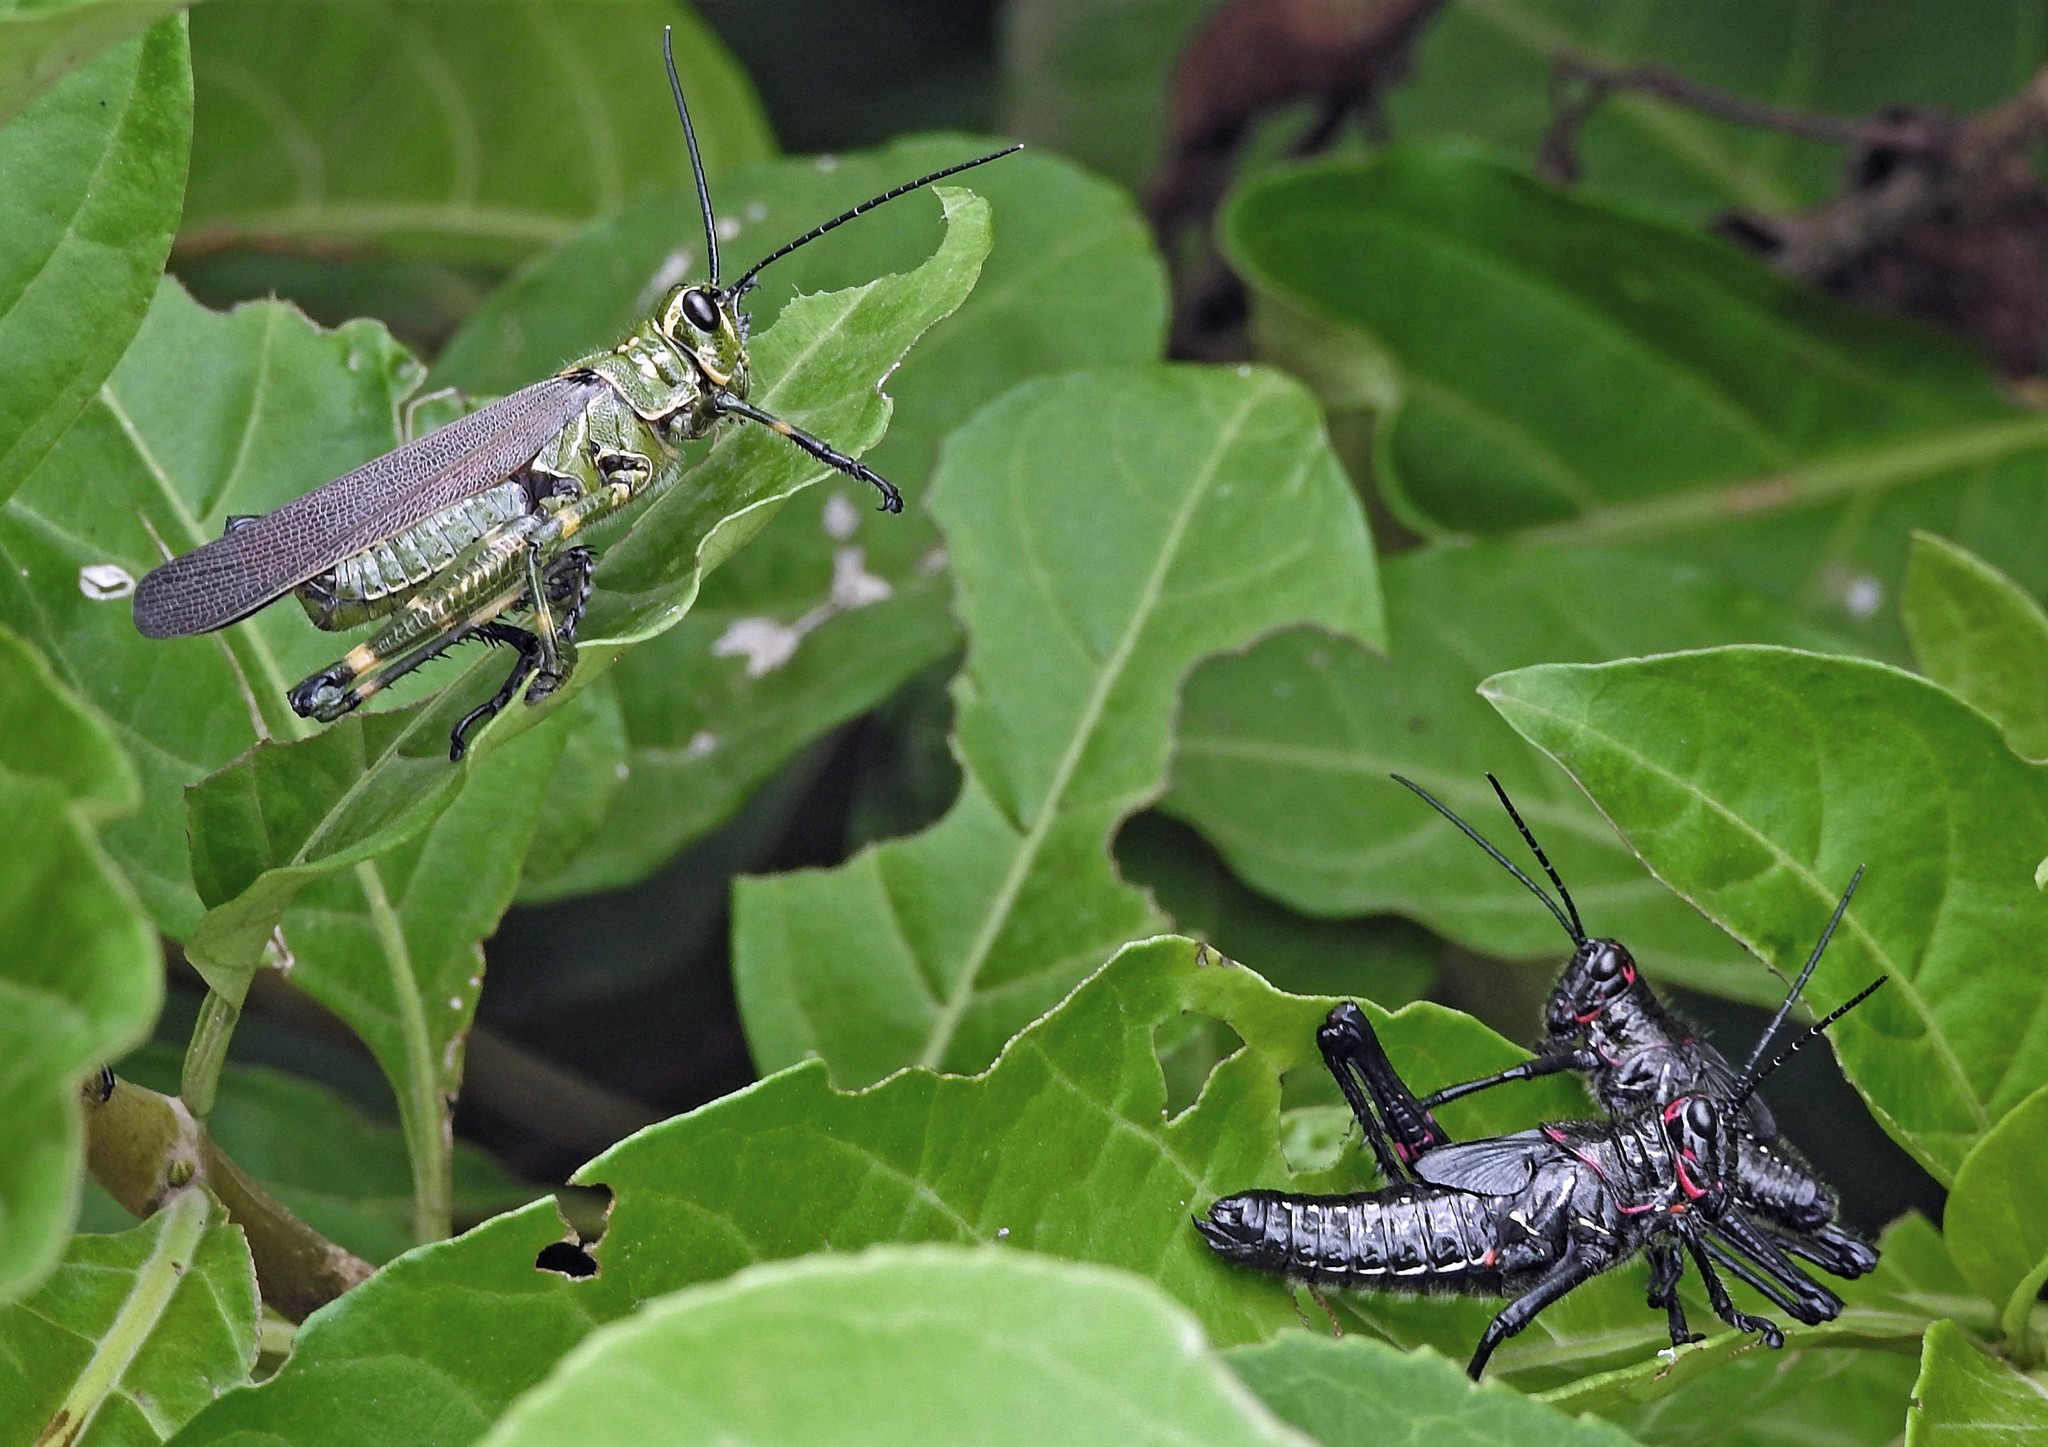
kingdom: Animalia
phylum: Arthropoda
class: Insecta
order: Orthoptera
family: Romaleidae
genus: Chromacris
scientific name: Chromacris speciosa
